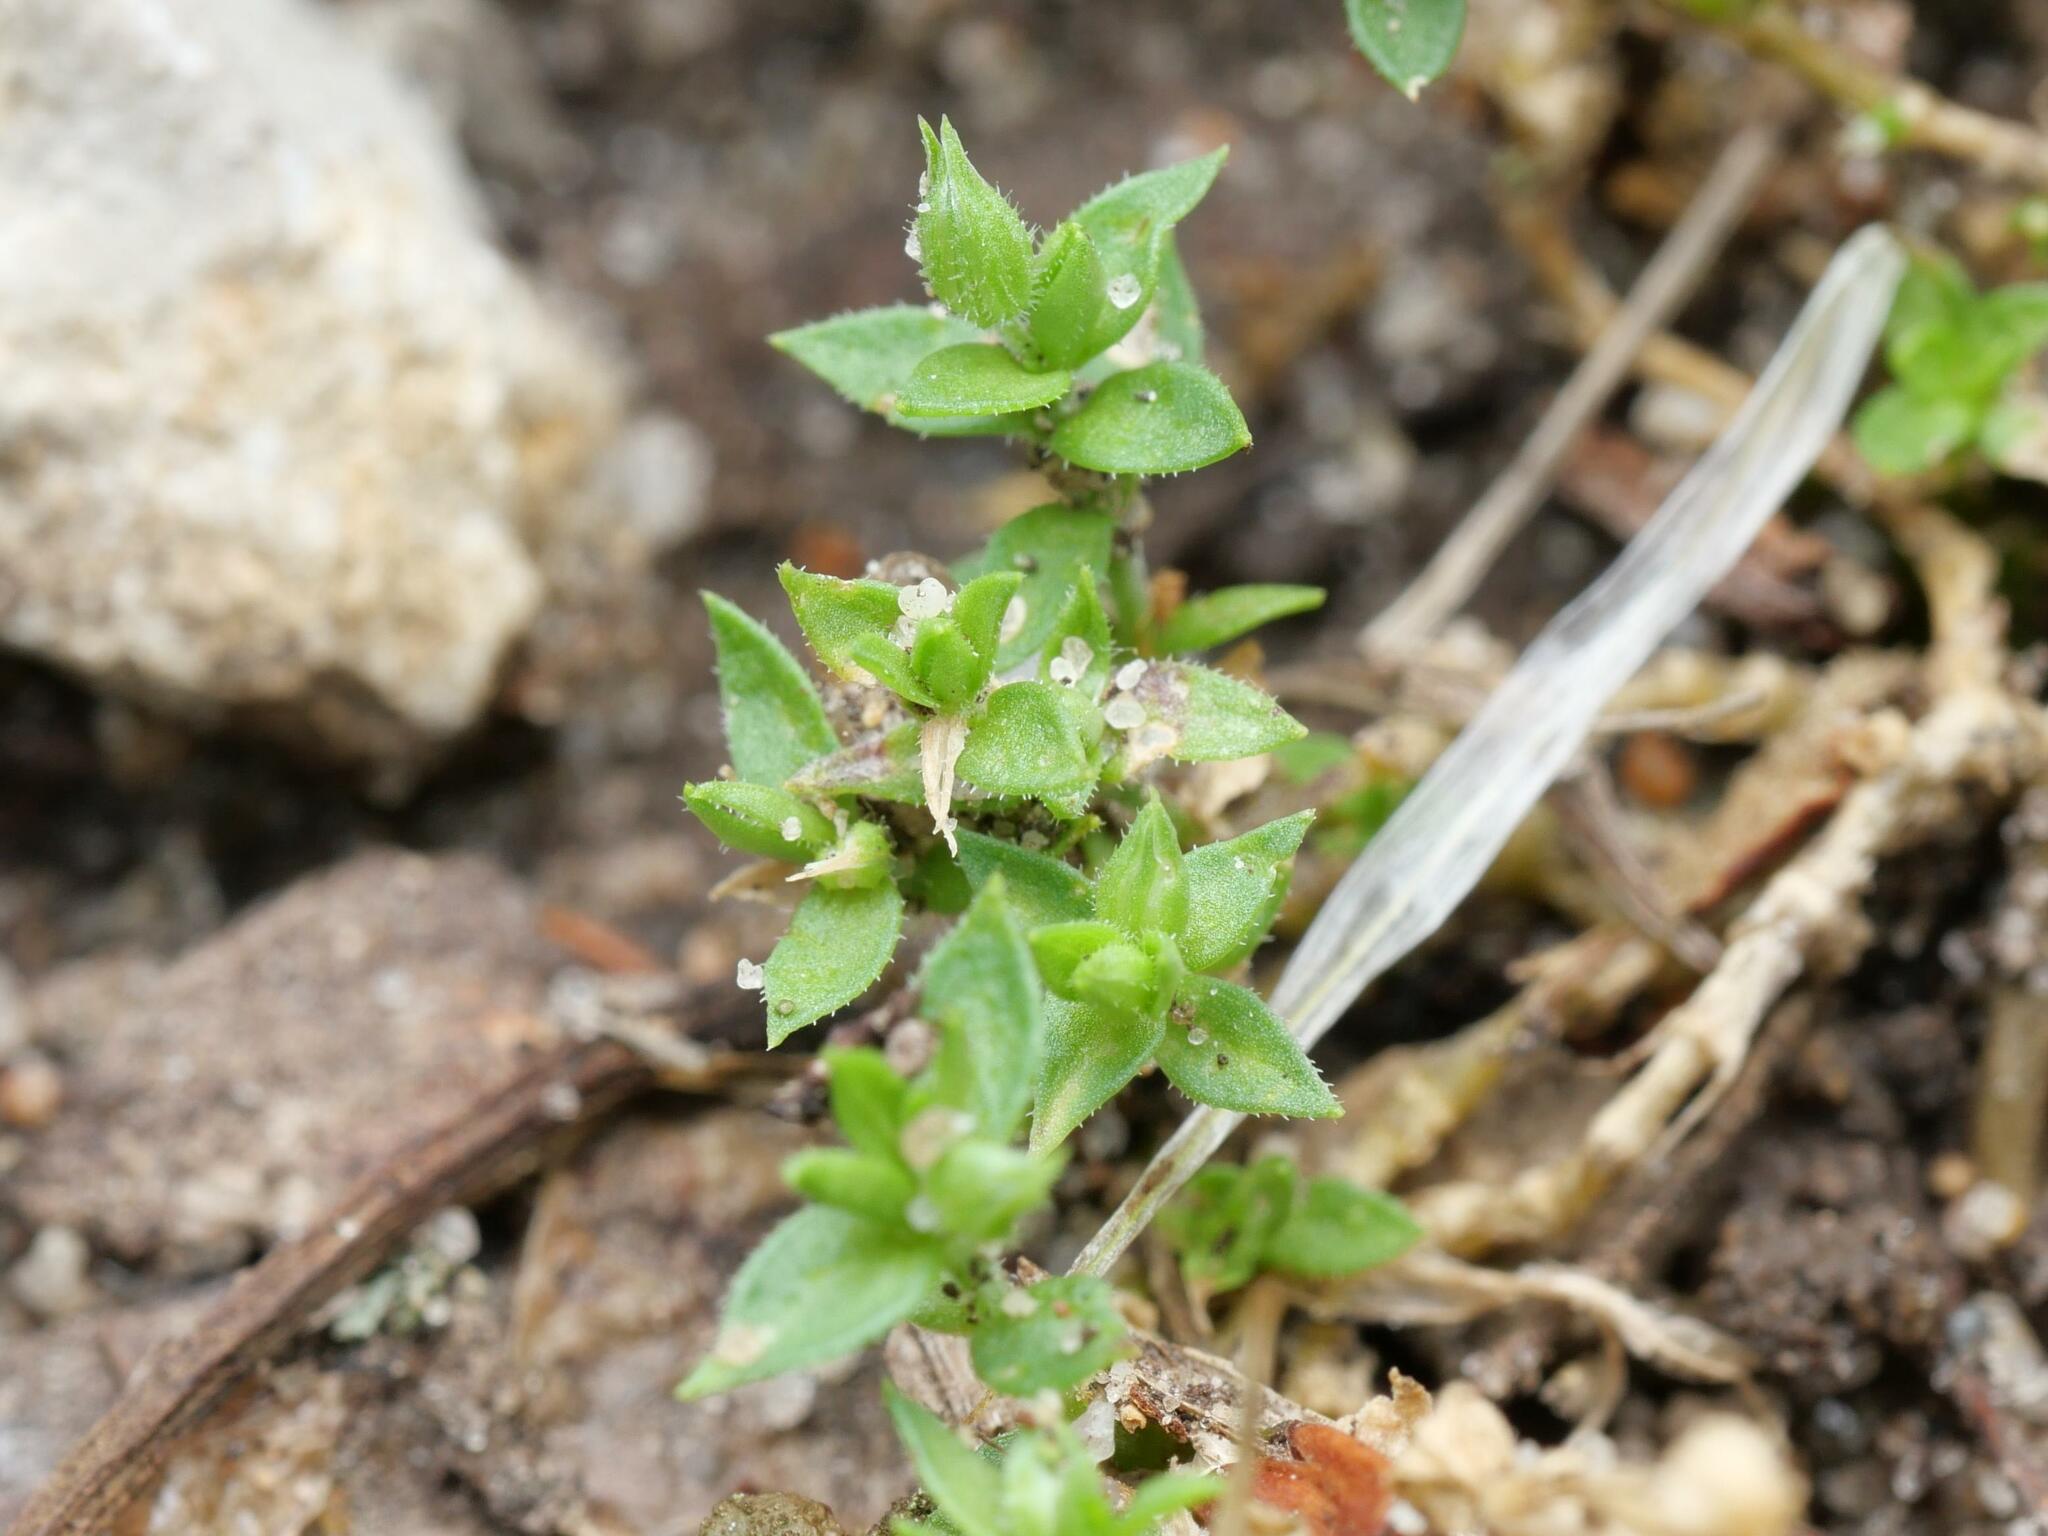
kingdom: Plantae
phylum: Tracheophyta
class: Magnoliopsida
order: Caryophyllales
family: Caryophyllaceae
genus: Arenaria
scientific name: Arenaria serpyllifolia
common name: Thyme-leaved sandwort
